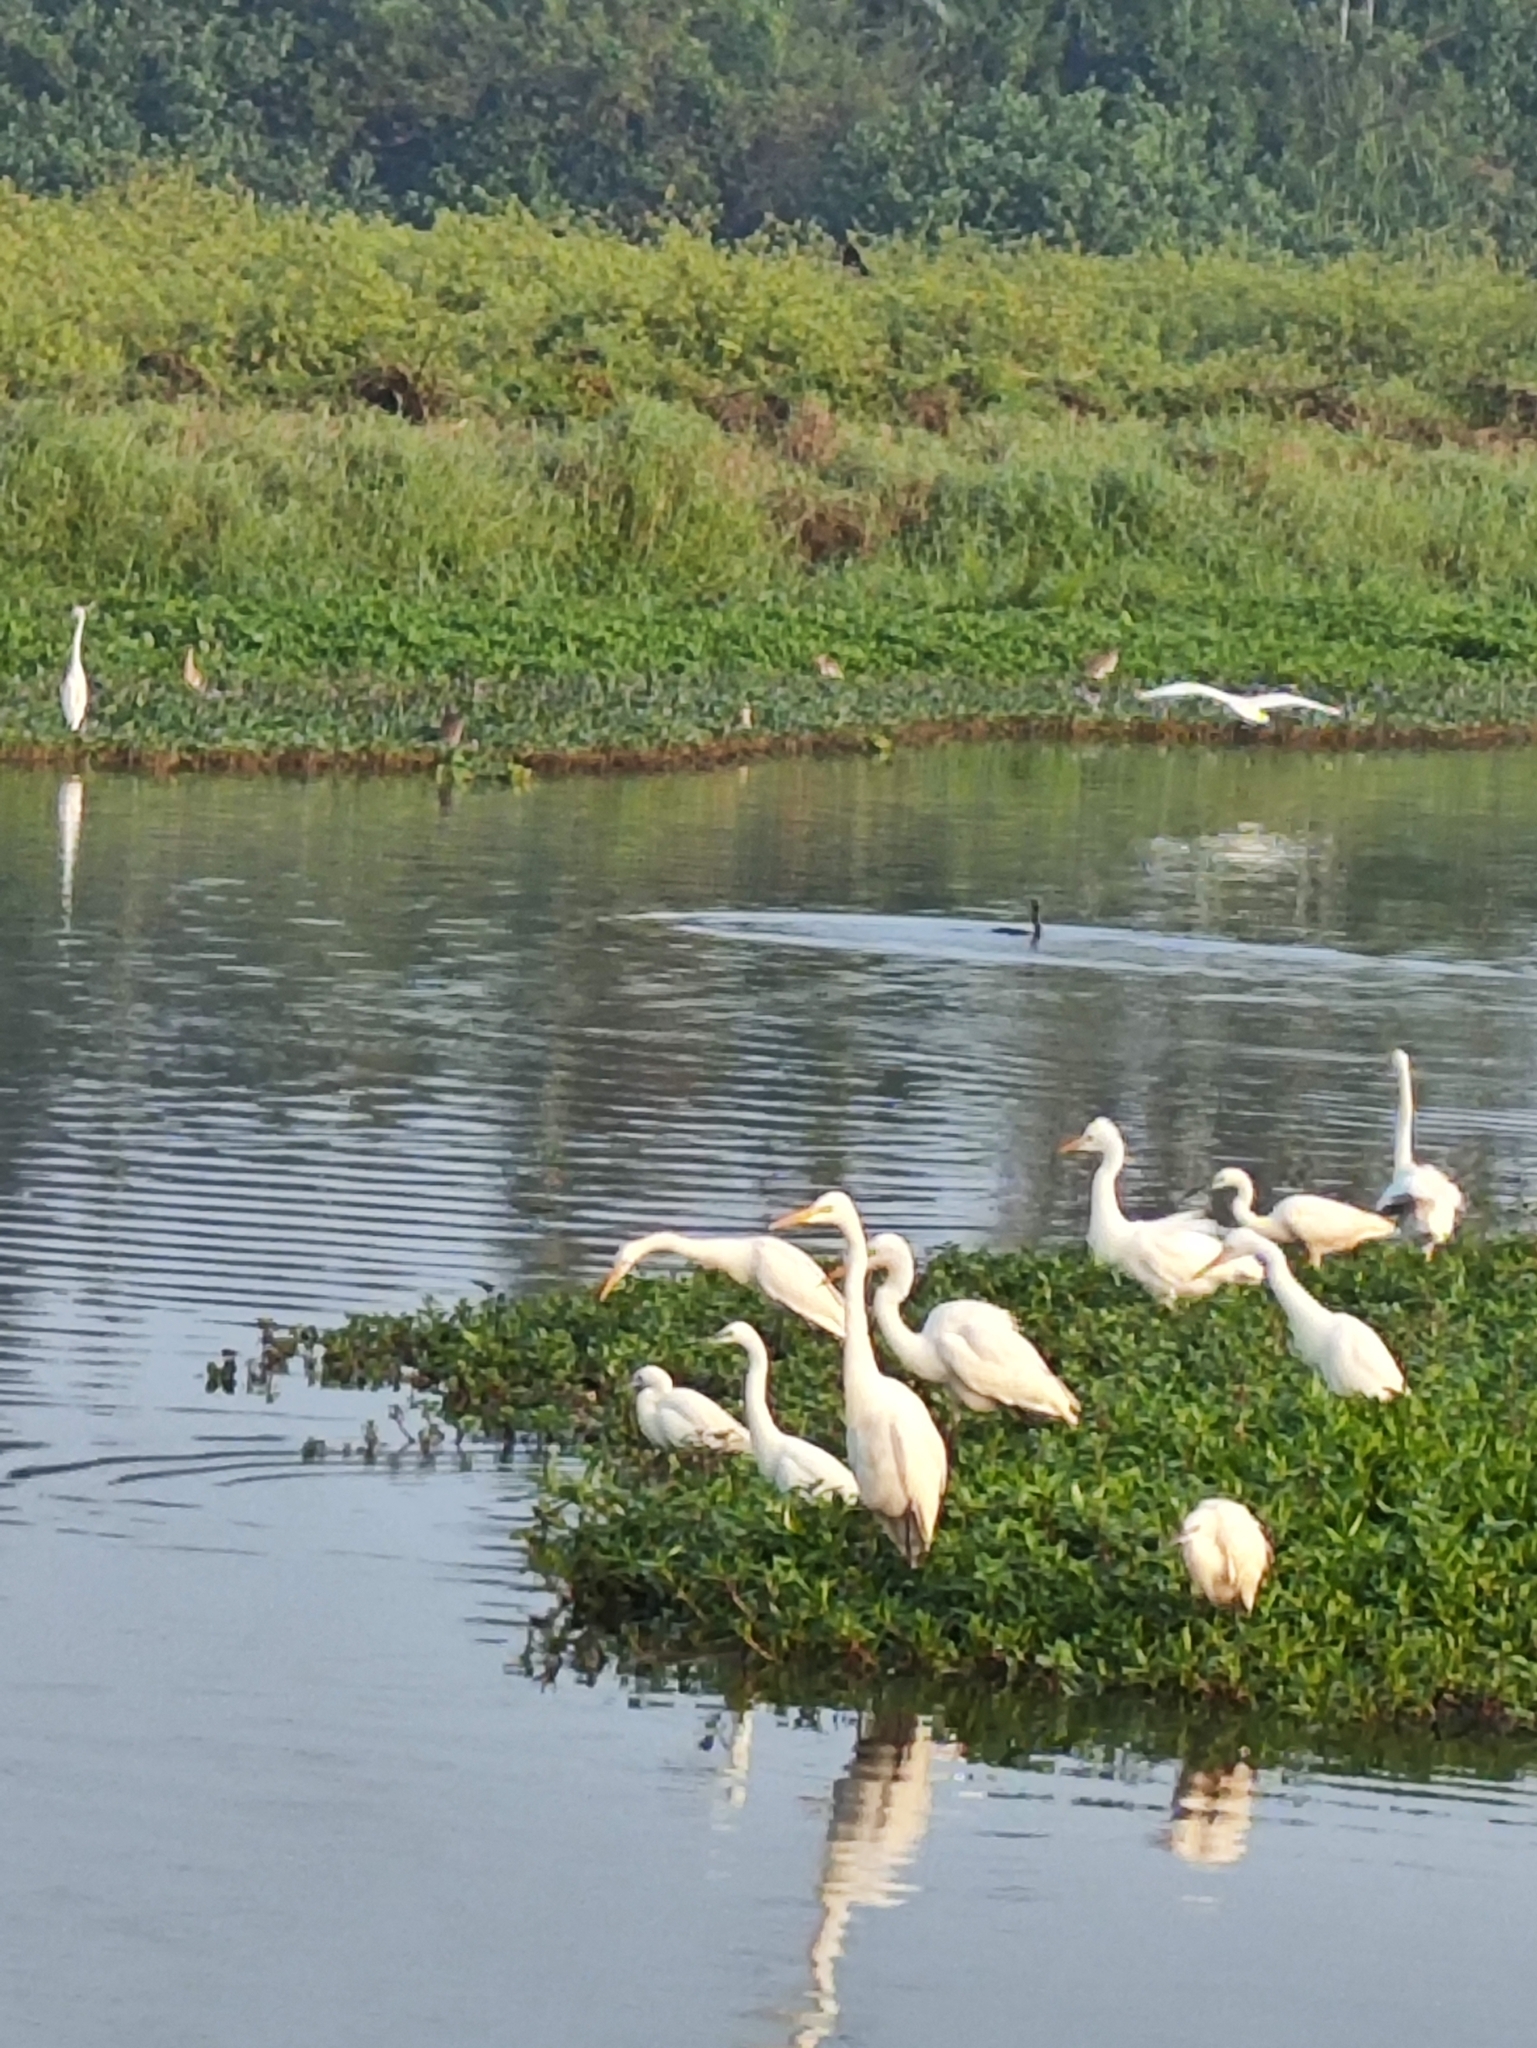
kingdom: Animalia
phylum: Chordata
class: Aves
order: Pelecaniformes
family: Ardeidae
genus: Egretta
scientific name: Egretta intermedia
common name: Intermediate egret
